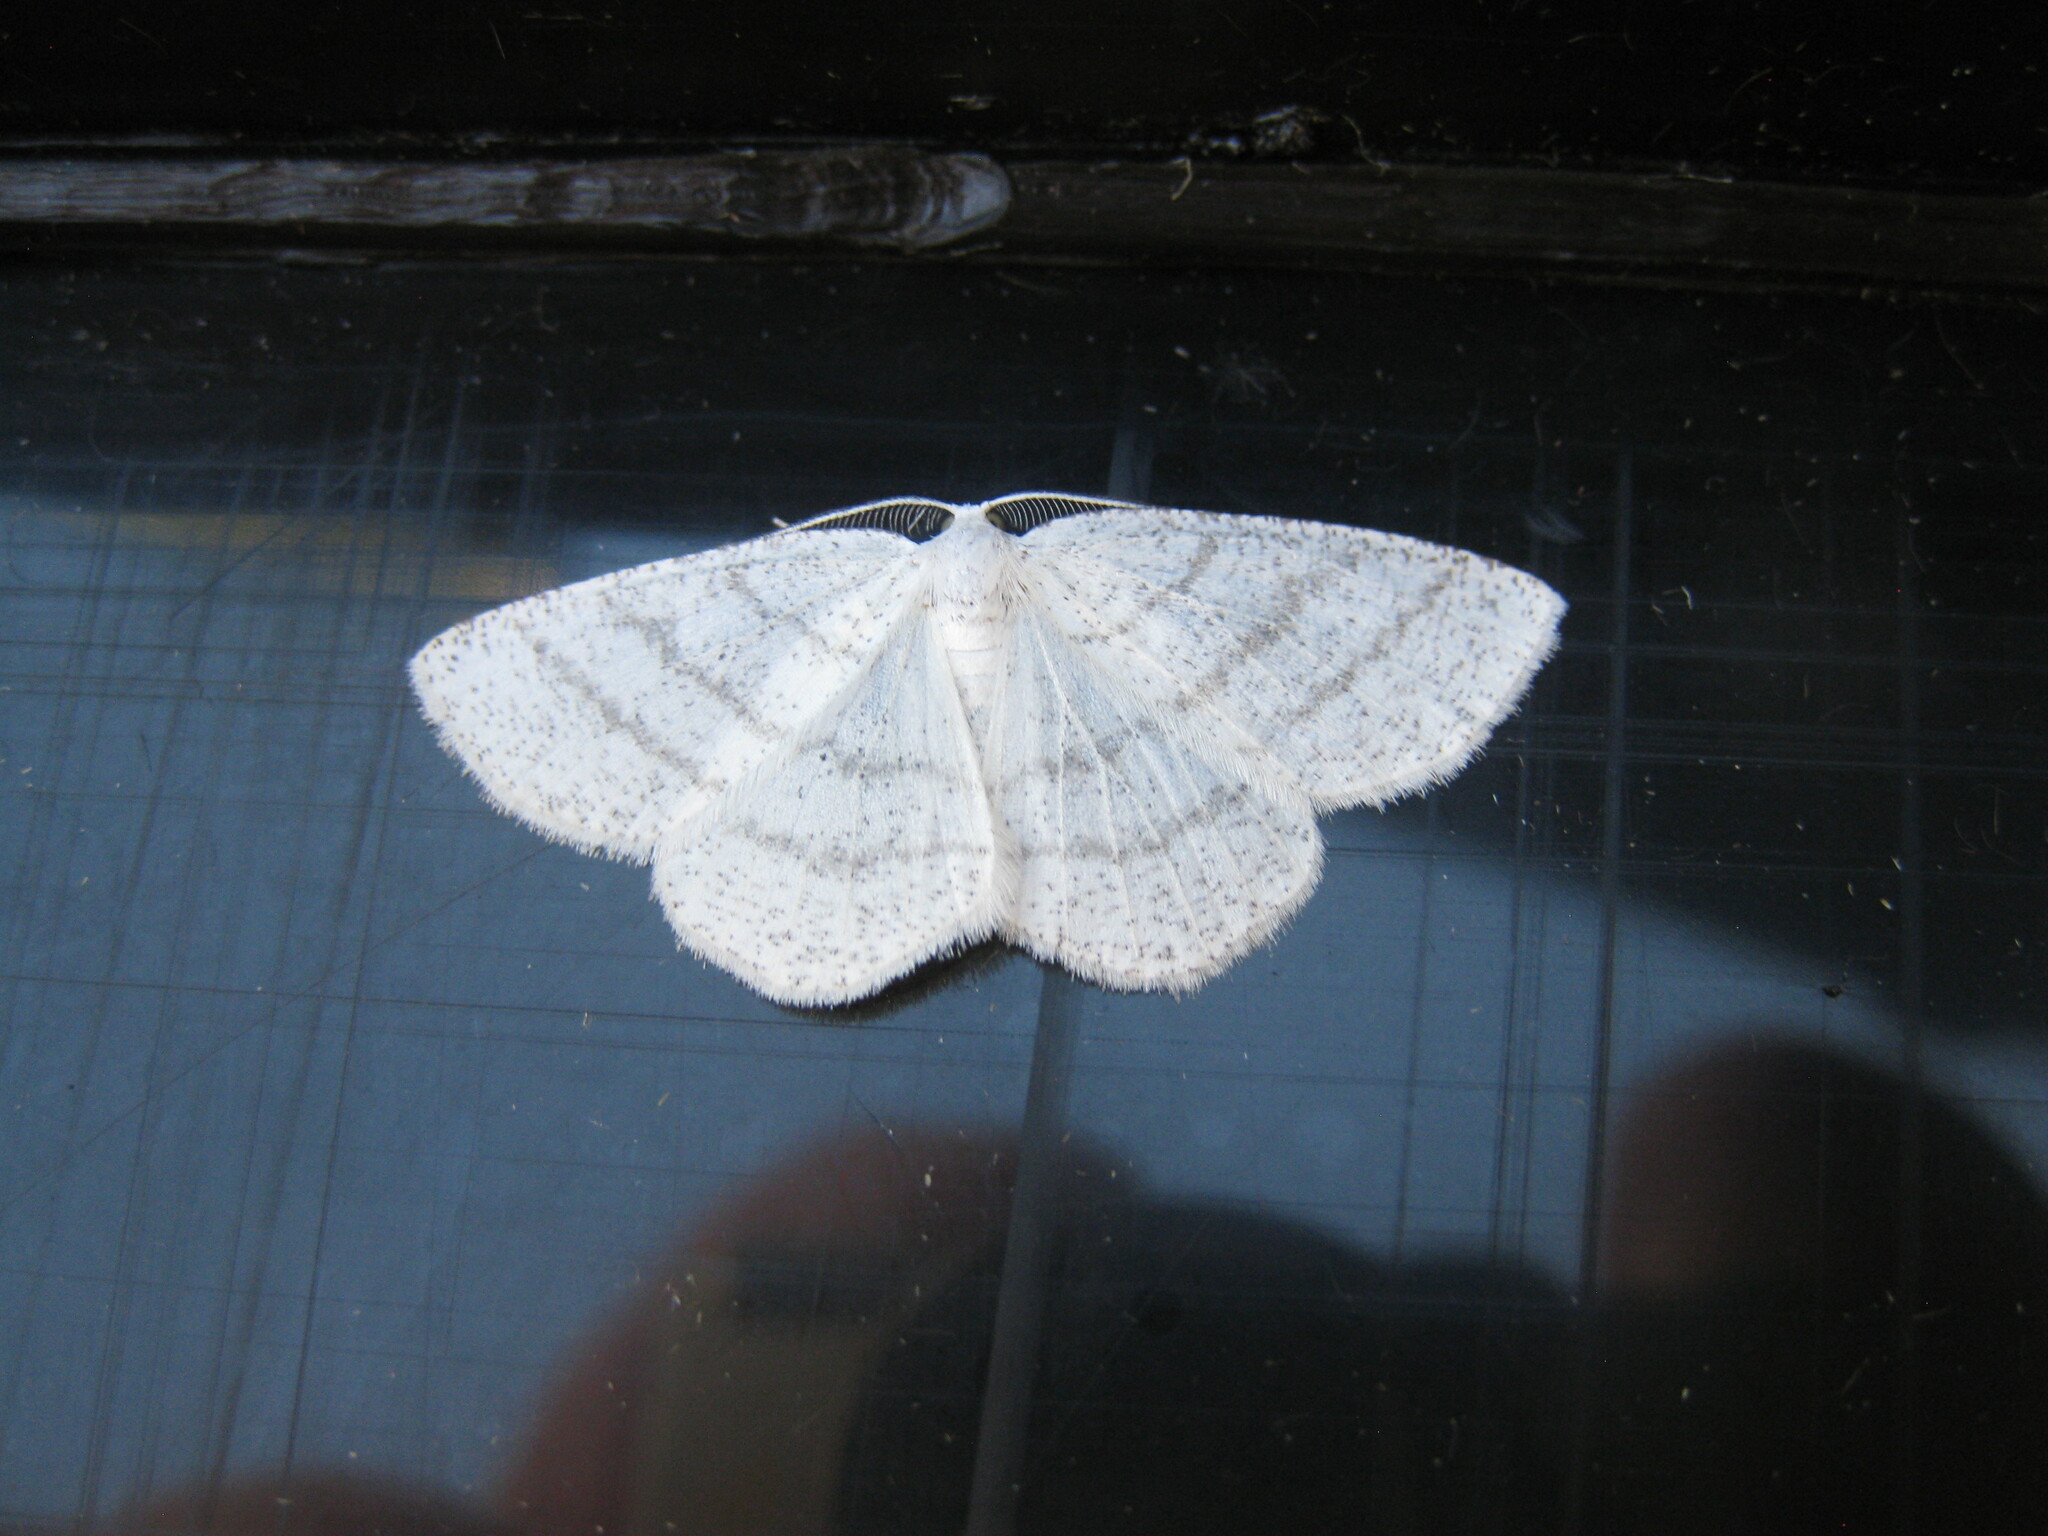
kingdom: Animalia
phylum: Arthropoda
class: Insecta
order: Lepidoptera
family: Geometridae
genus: Cabera
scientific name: Cabera pusaria
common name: Common white wave
